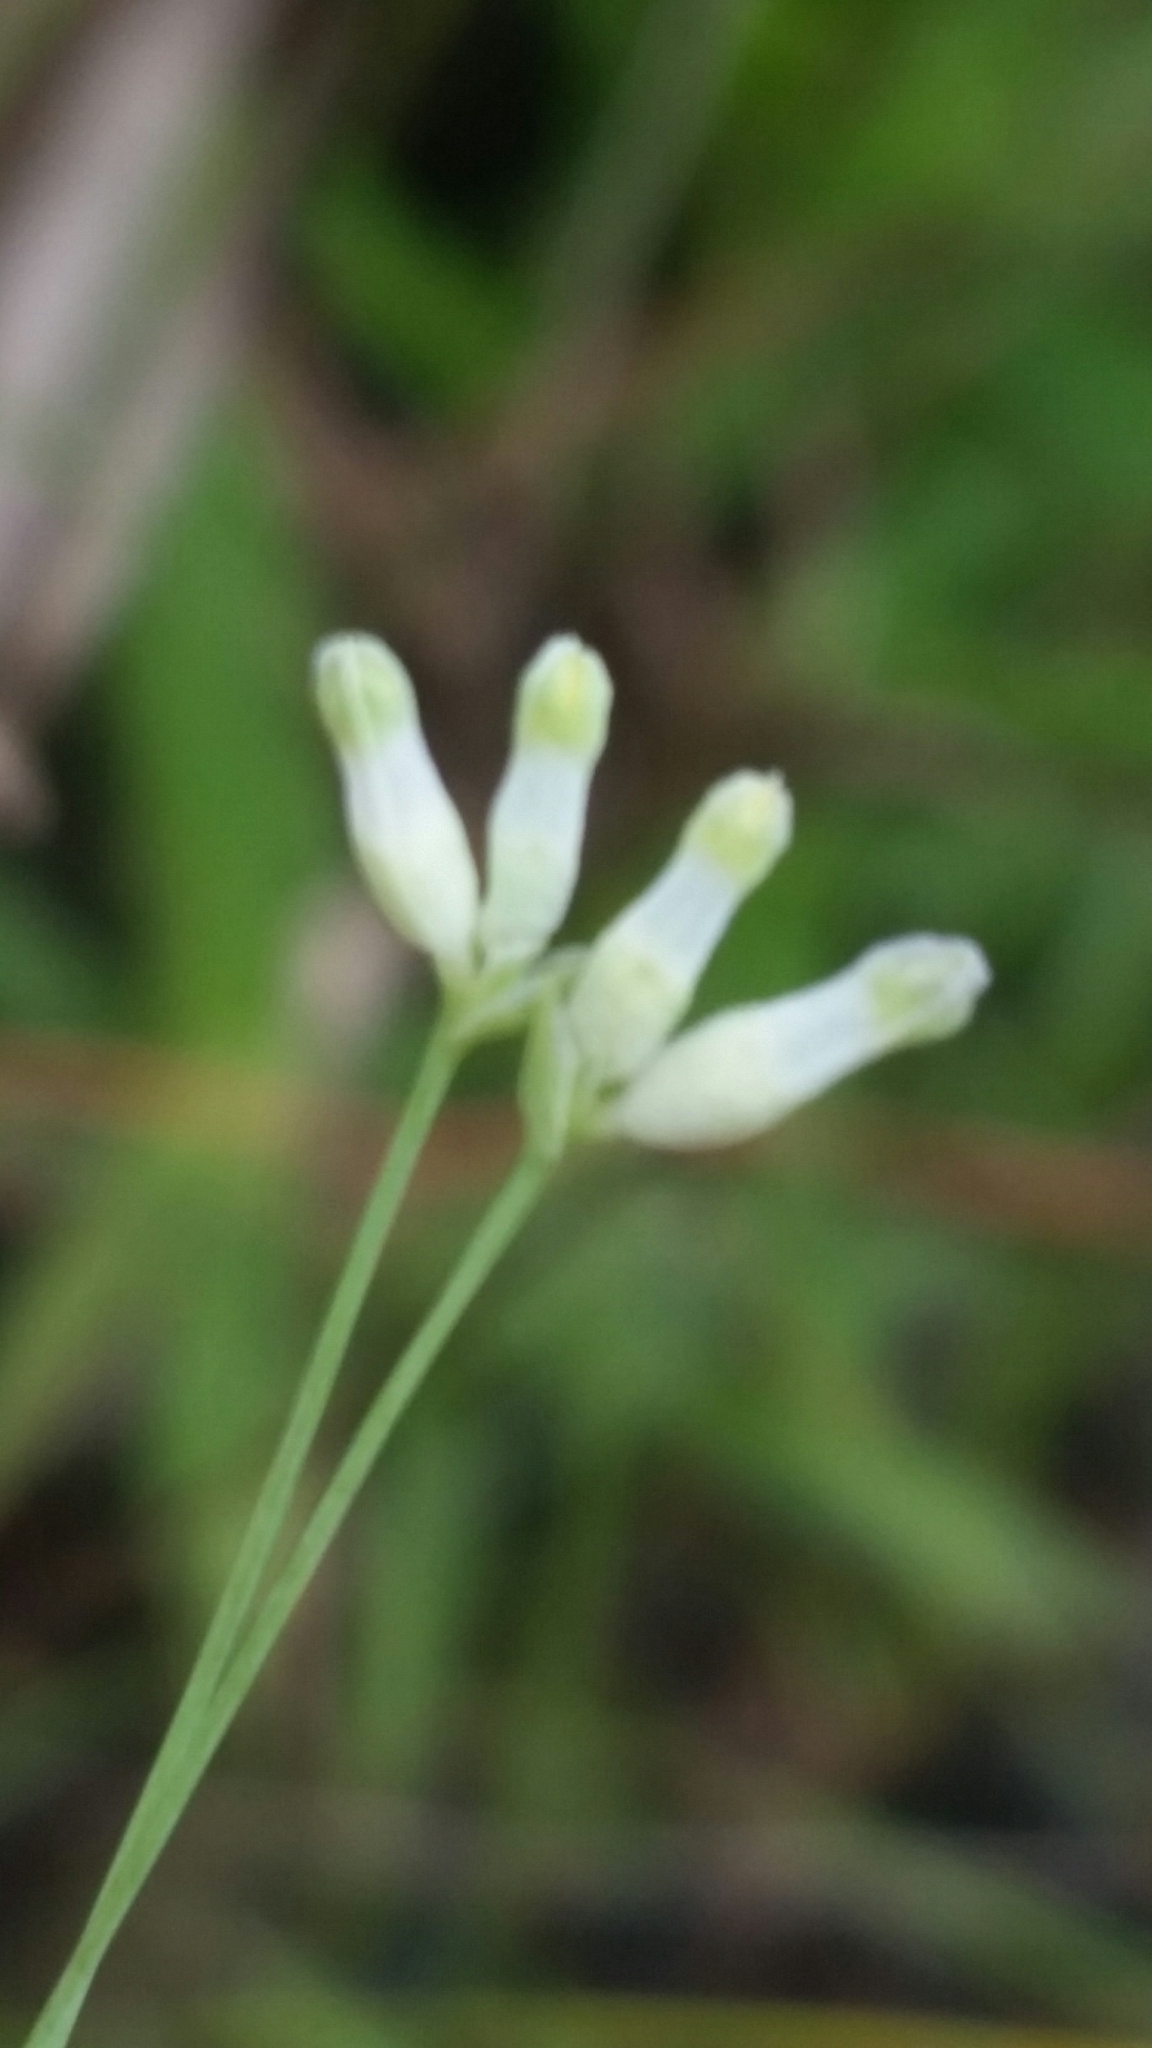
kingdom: Plantae
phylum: Tracheophyta
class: Liliopsida
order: Dioscoreales
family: Burmanniaceae
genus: Burmannia
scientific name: Burmannia capitata
